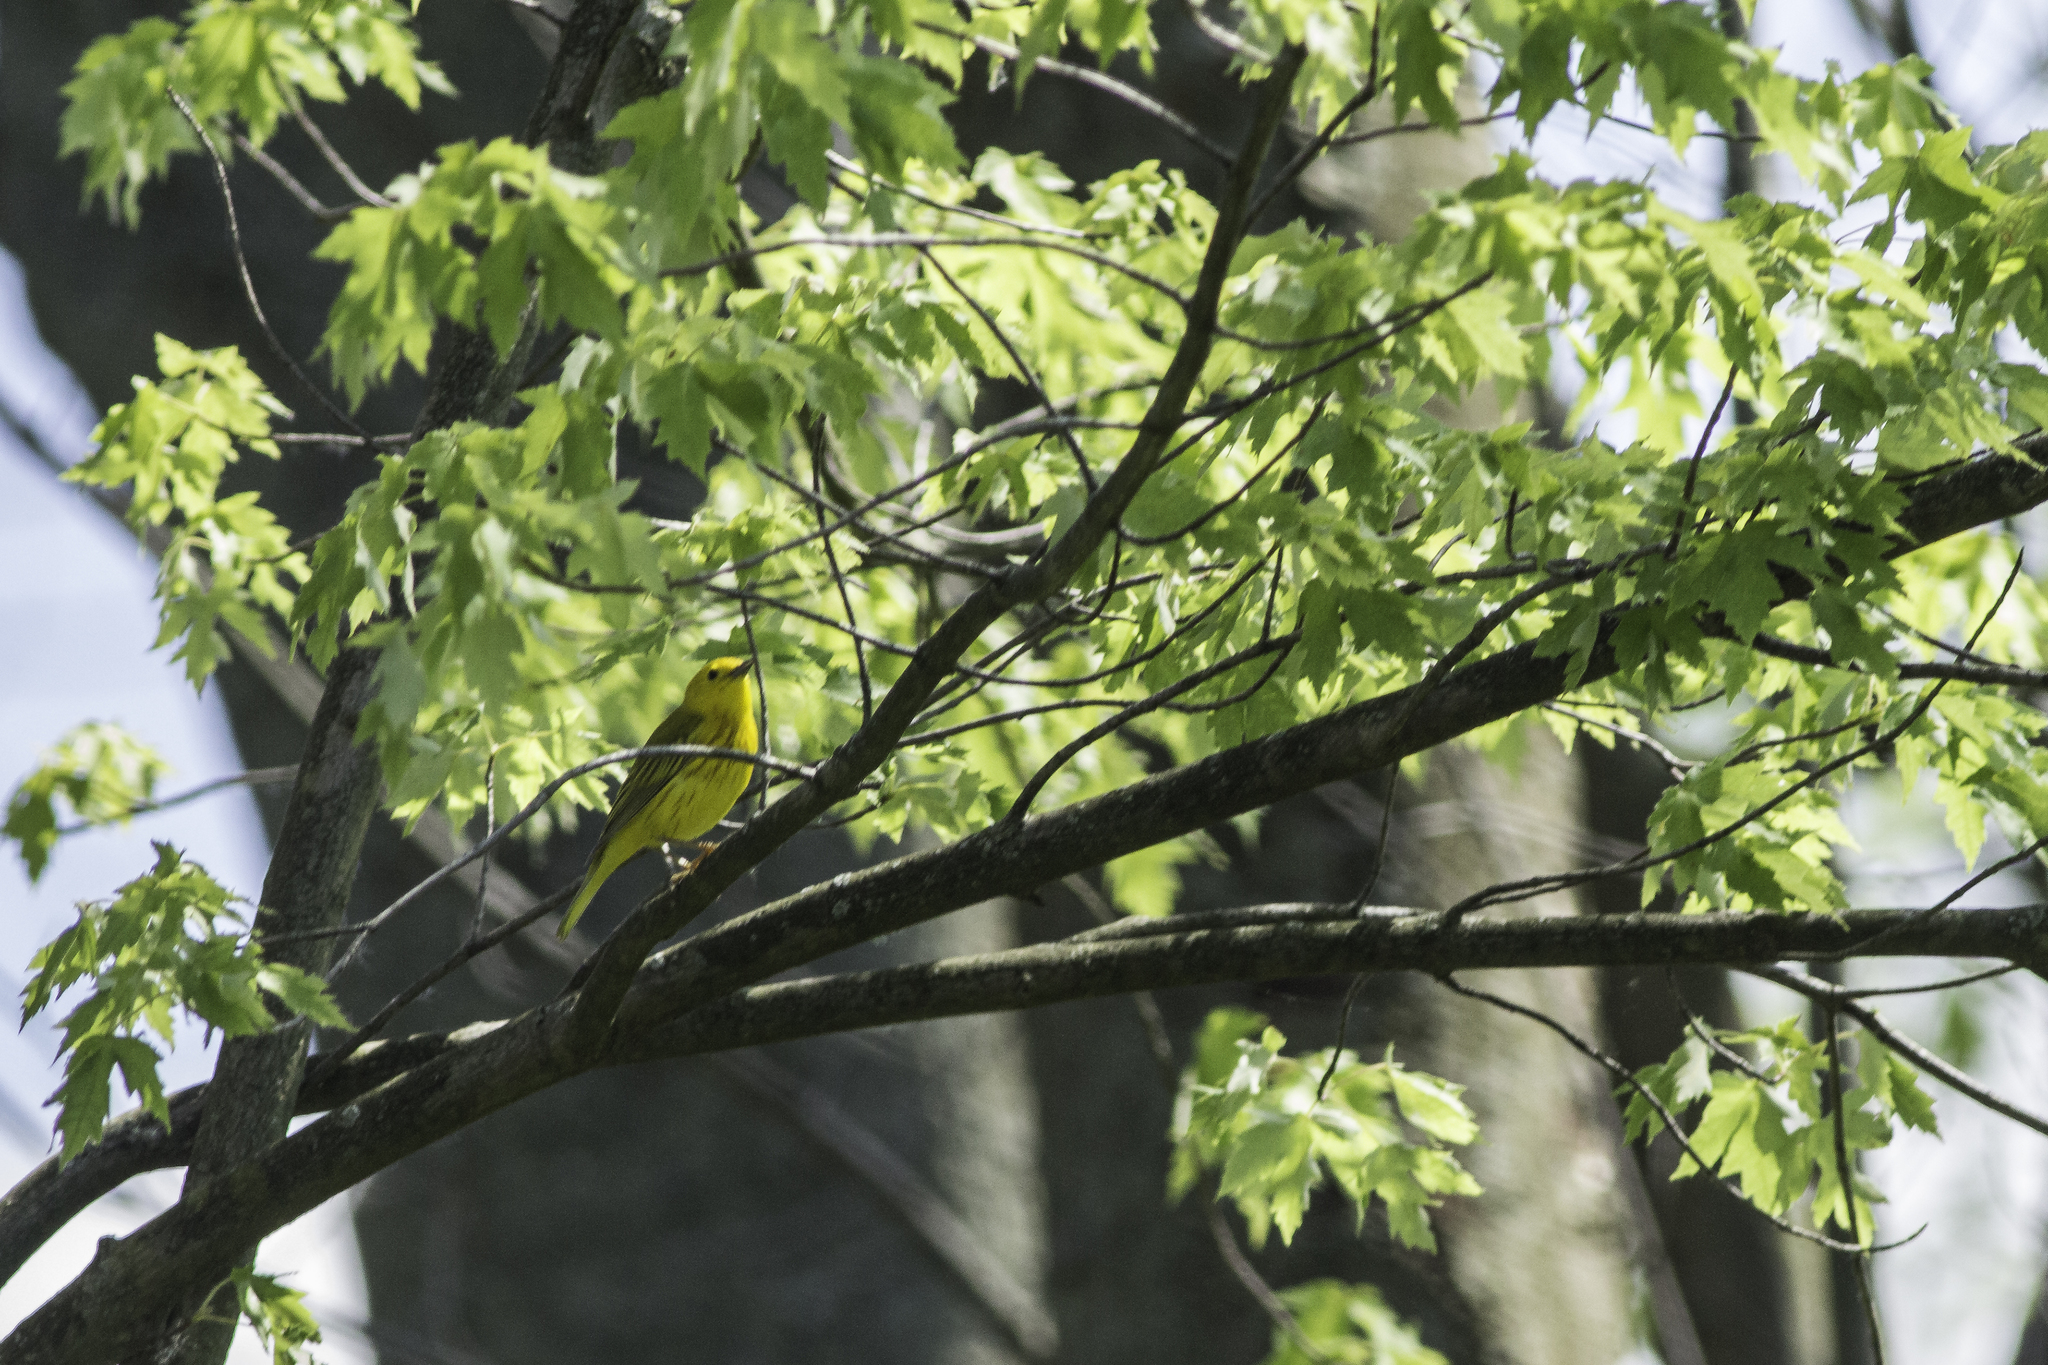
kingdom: Animalia
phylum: Chordata
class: Aves
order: Passeriformes
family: Parulidae
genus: Setophaga
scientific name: Setophaga petechia
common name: Yellow warbler
